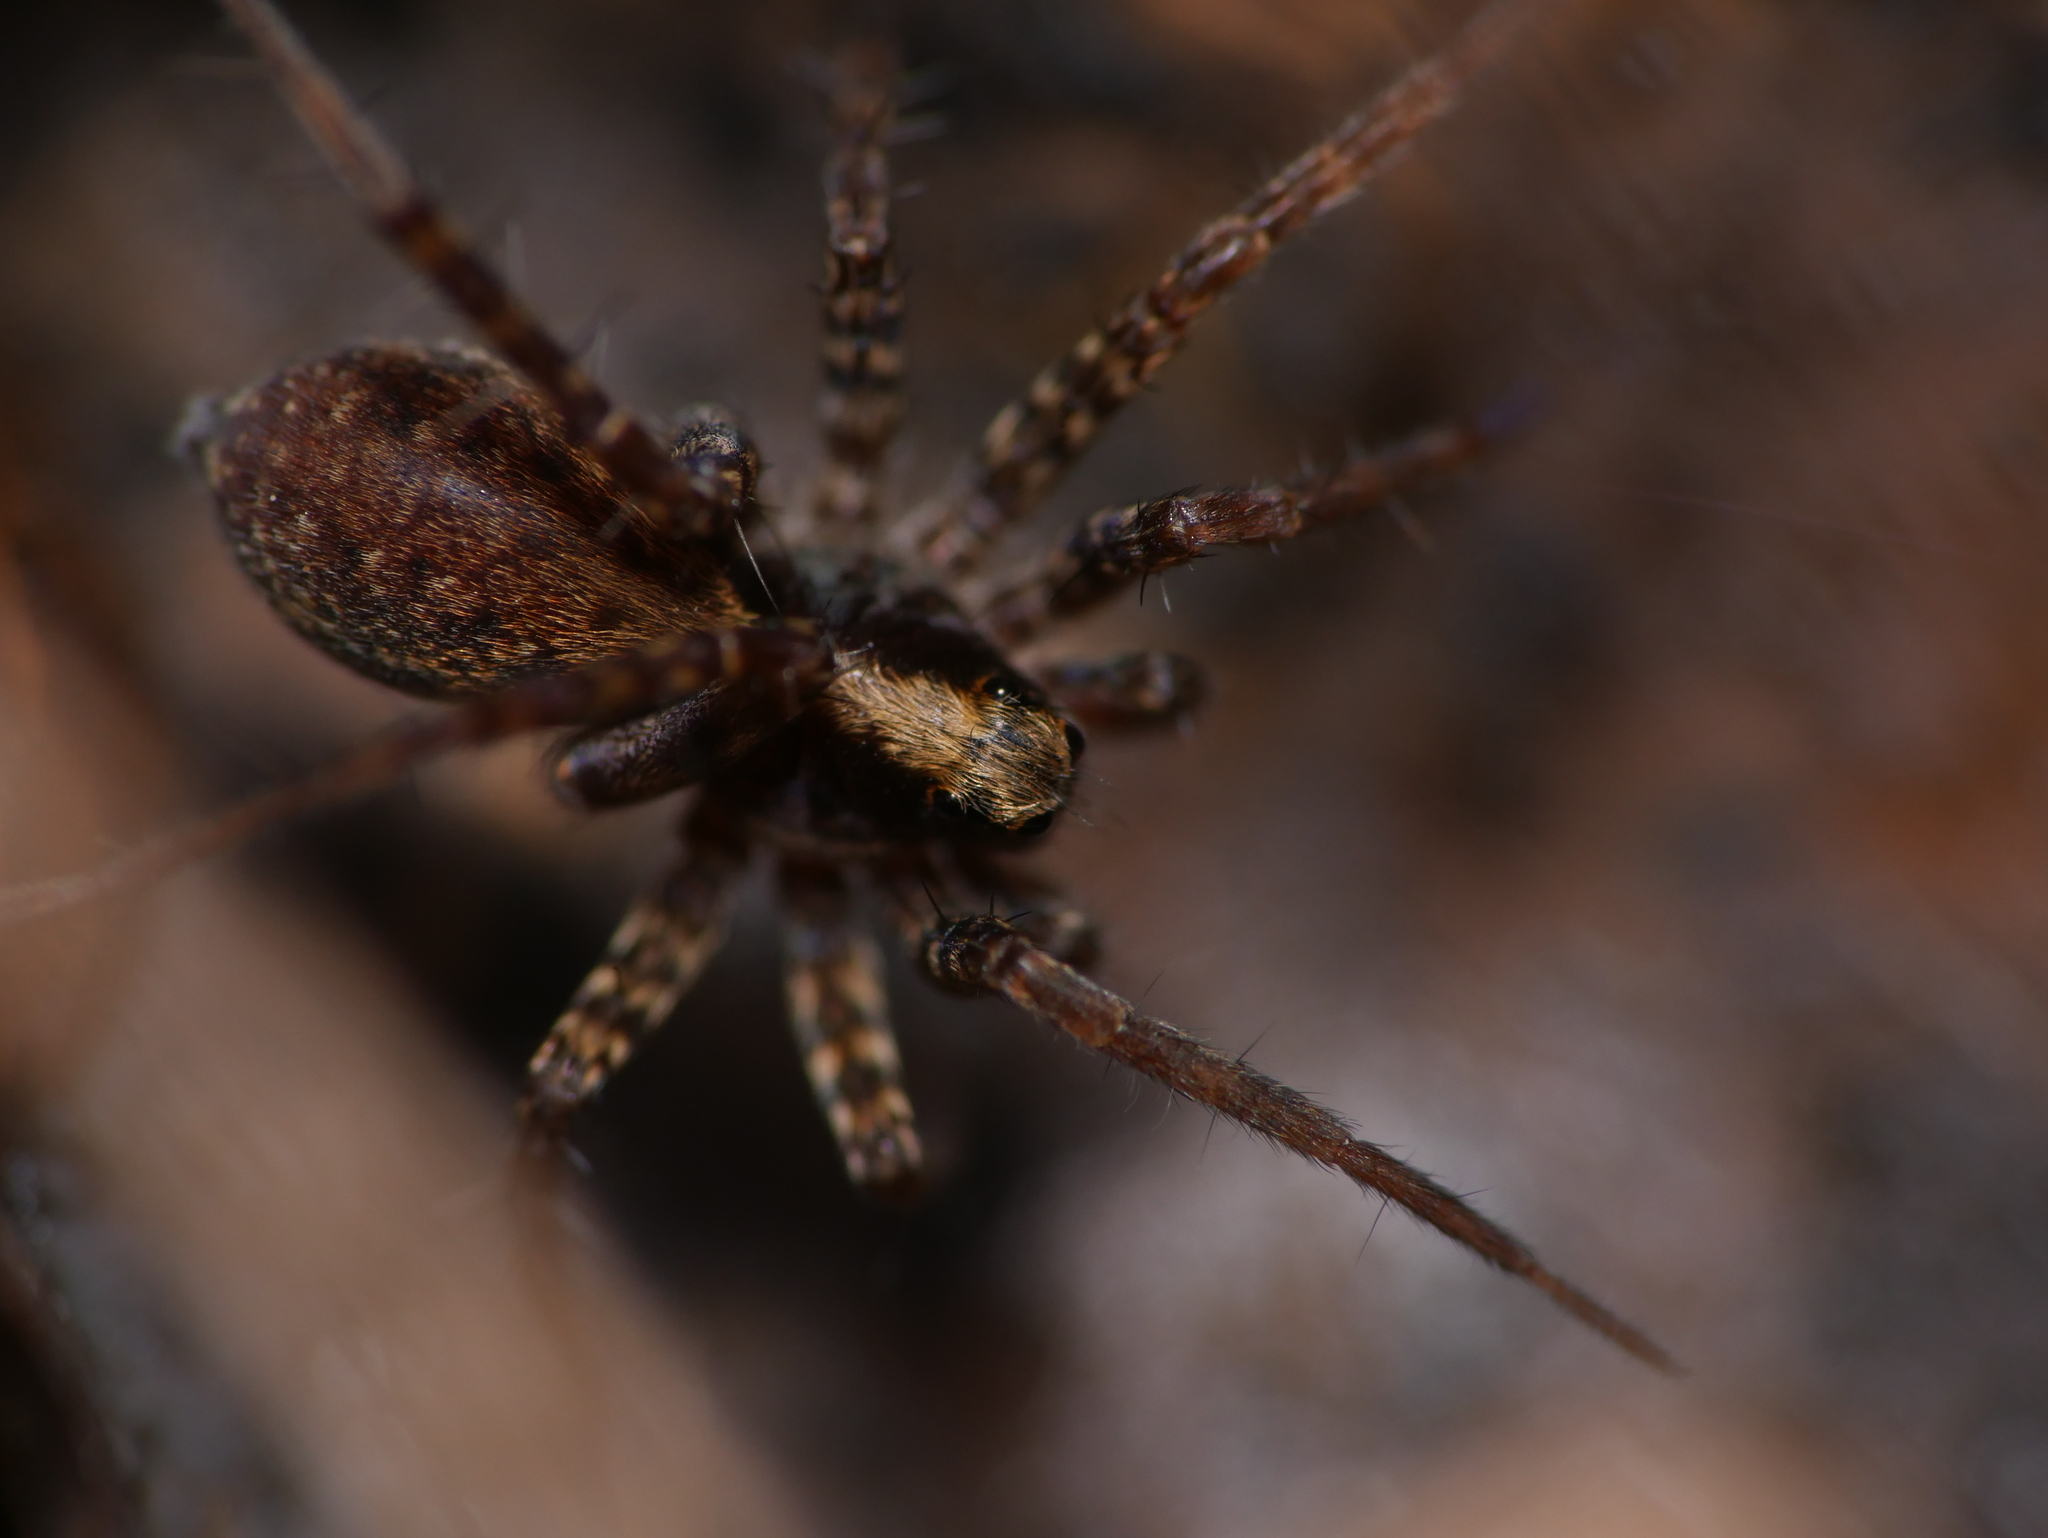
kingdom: Animalia
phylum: Arthropoda
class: Arachnida
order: Araneae
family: Lycosidae
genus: Pardosa
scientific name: Pardosa
